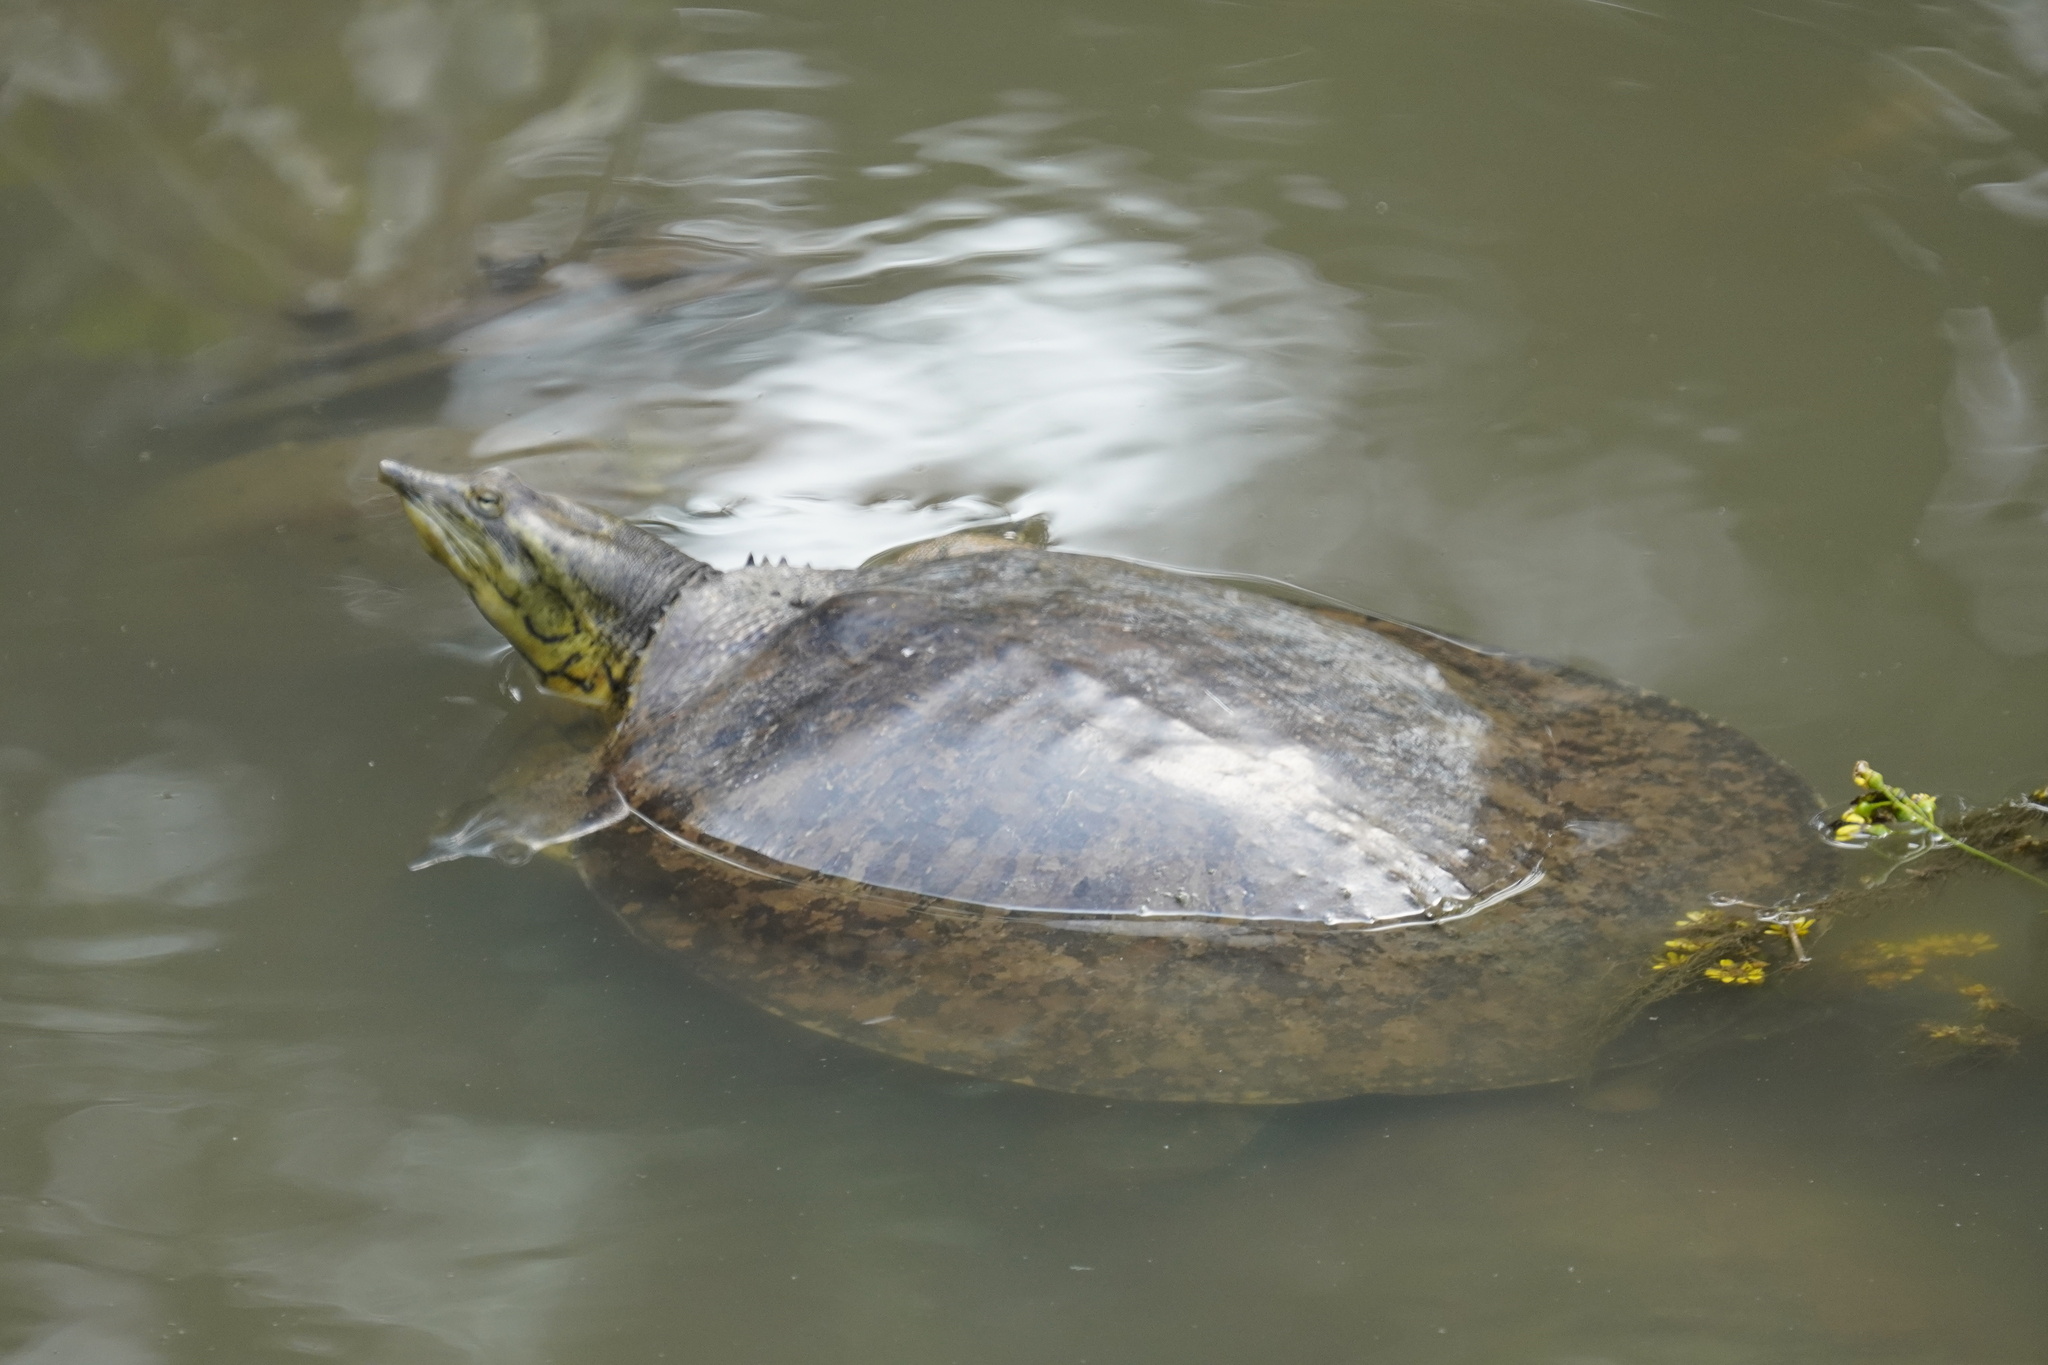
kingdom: Animalia
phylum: Chordata
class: Testudines
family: Trionychidae
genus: Apalone
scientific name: Apalone spinifera
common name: Spiny softshell turtle
